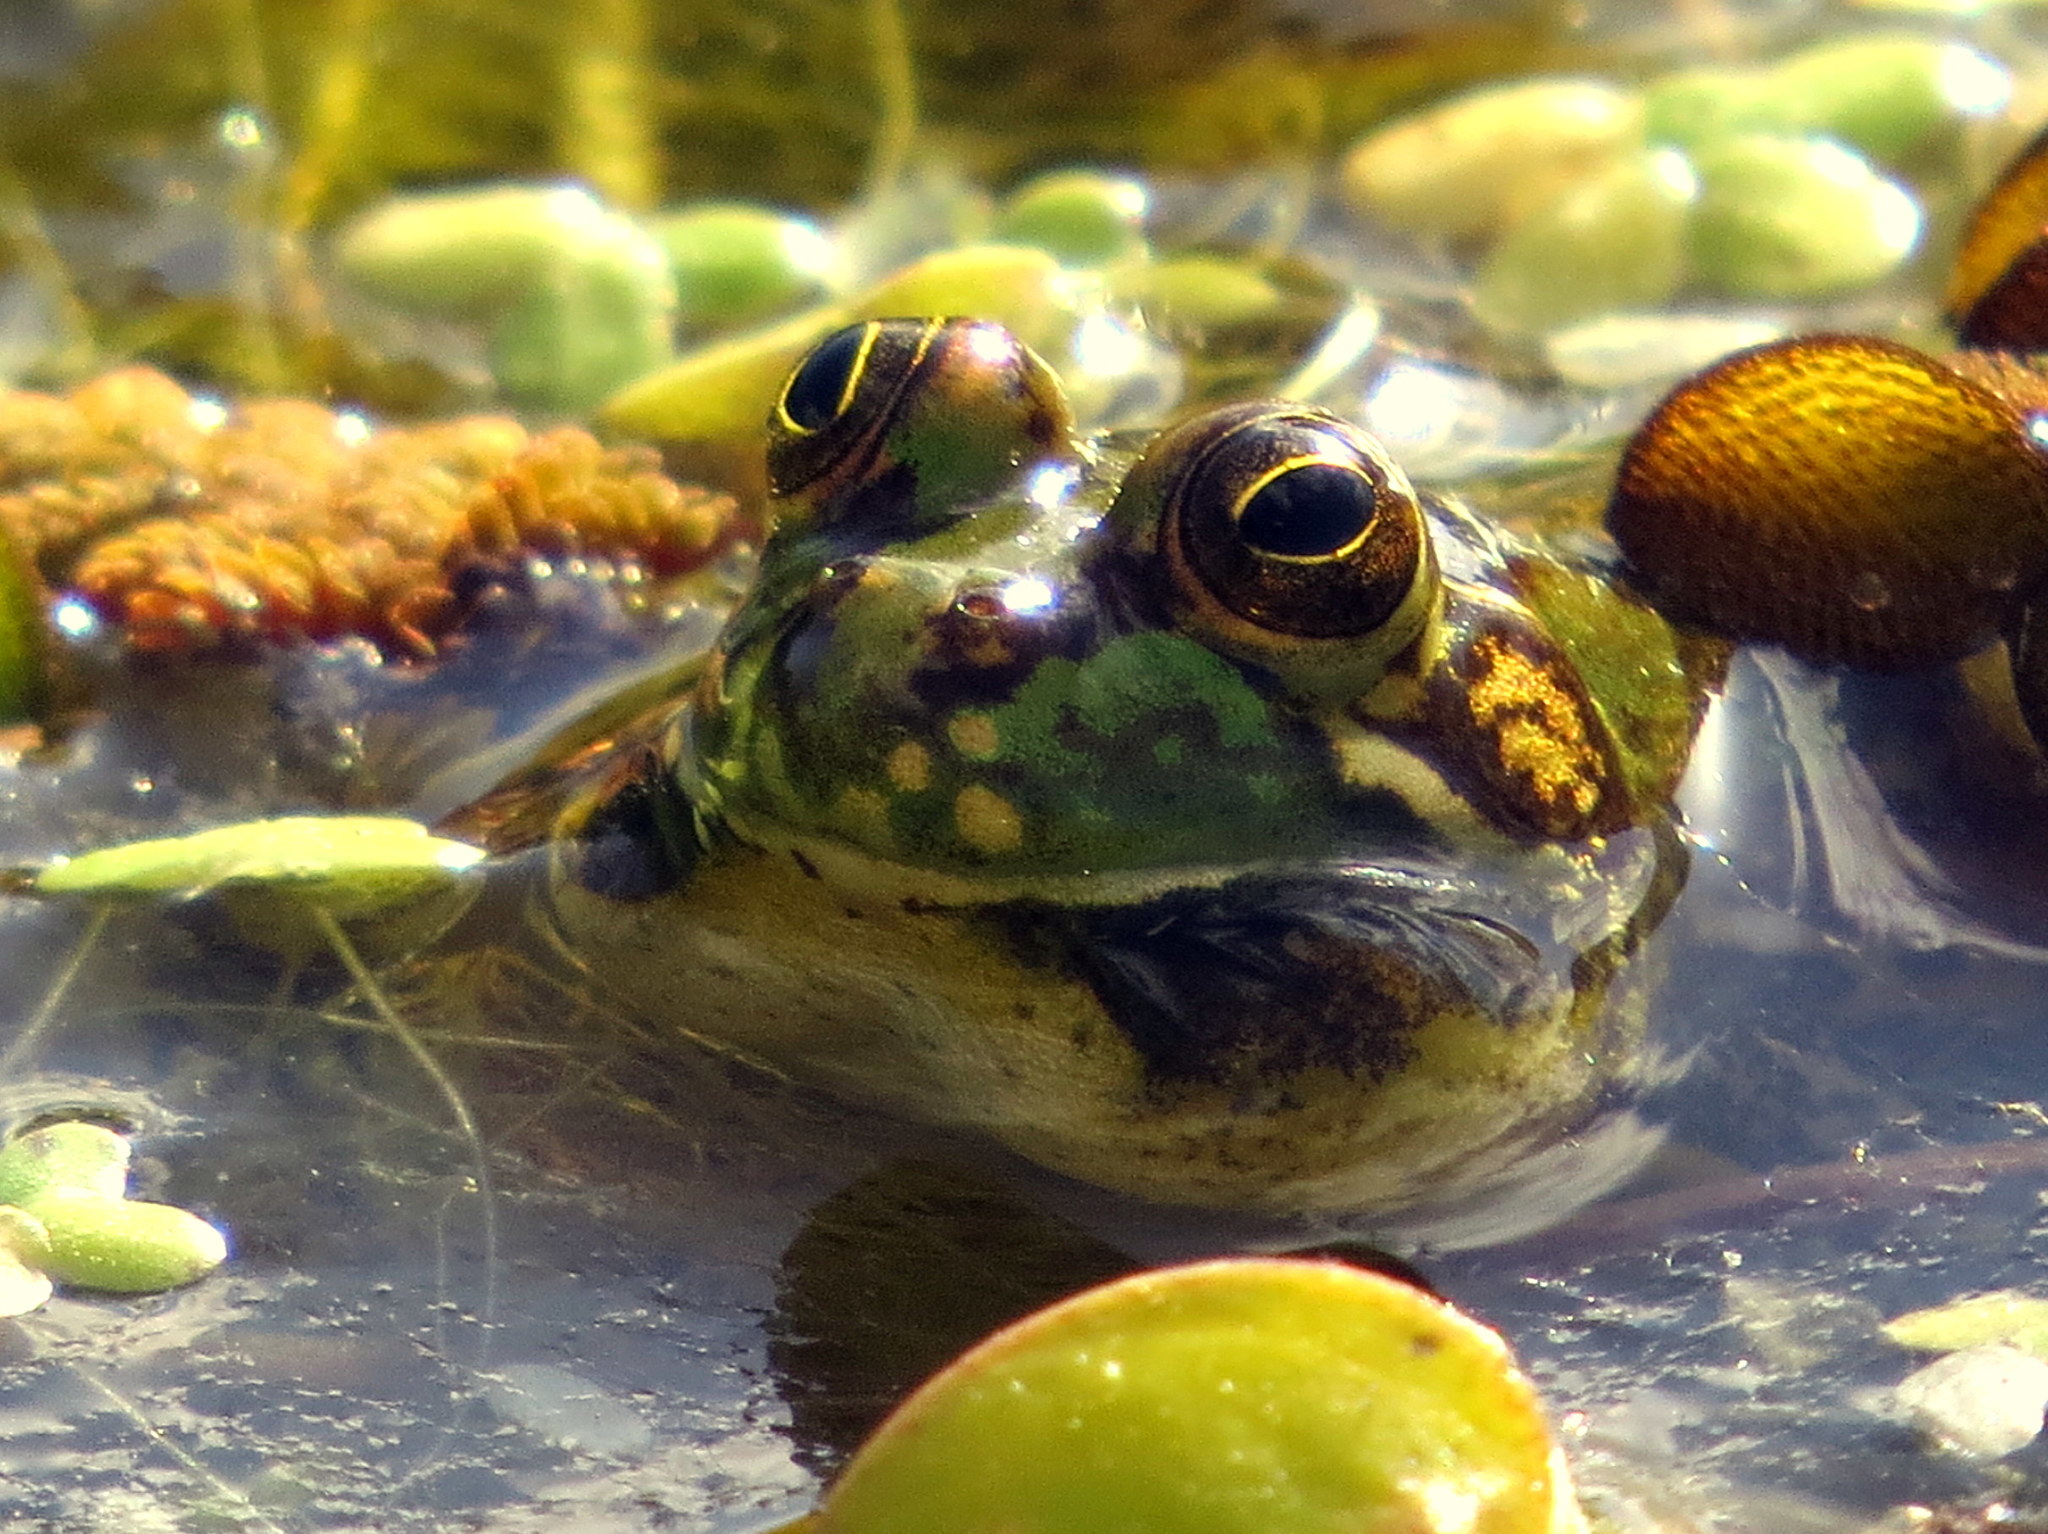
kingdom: Animalia
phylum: Chordata
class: Amphibia
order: Anura
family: Hylidae
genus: Pseudis
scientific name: Pseudis minuta
